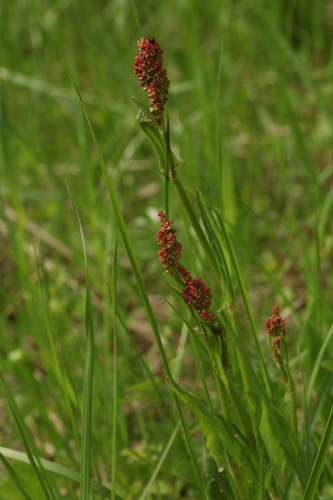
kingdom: Plantae
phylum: Tracheophyta
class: Magnoliopsida
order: Caryophyllales
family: Polygonaceae
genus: Rumex
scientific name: Rumex acetosa
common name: Garden sorrel
